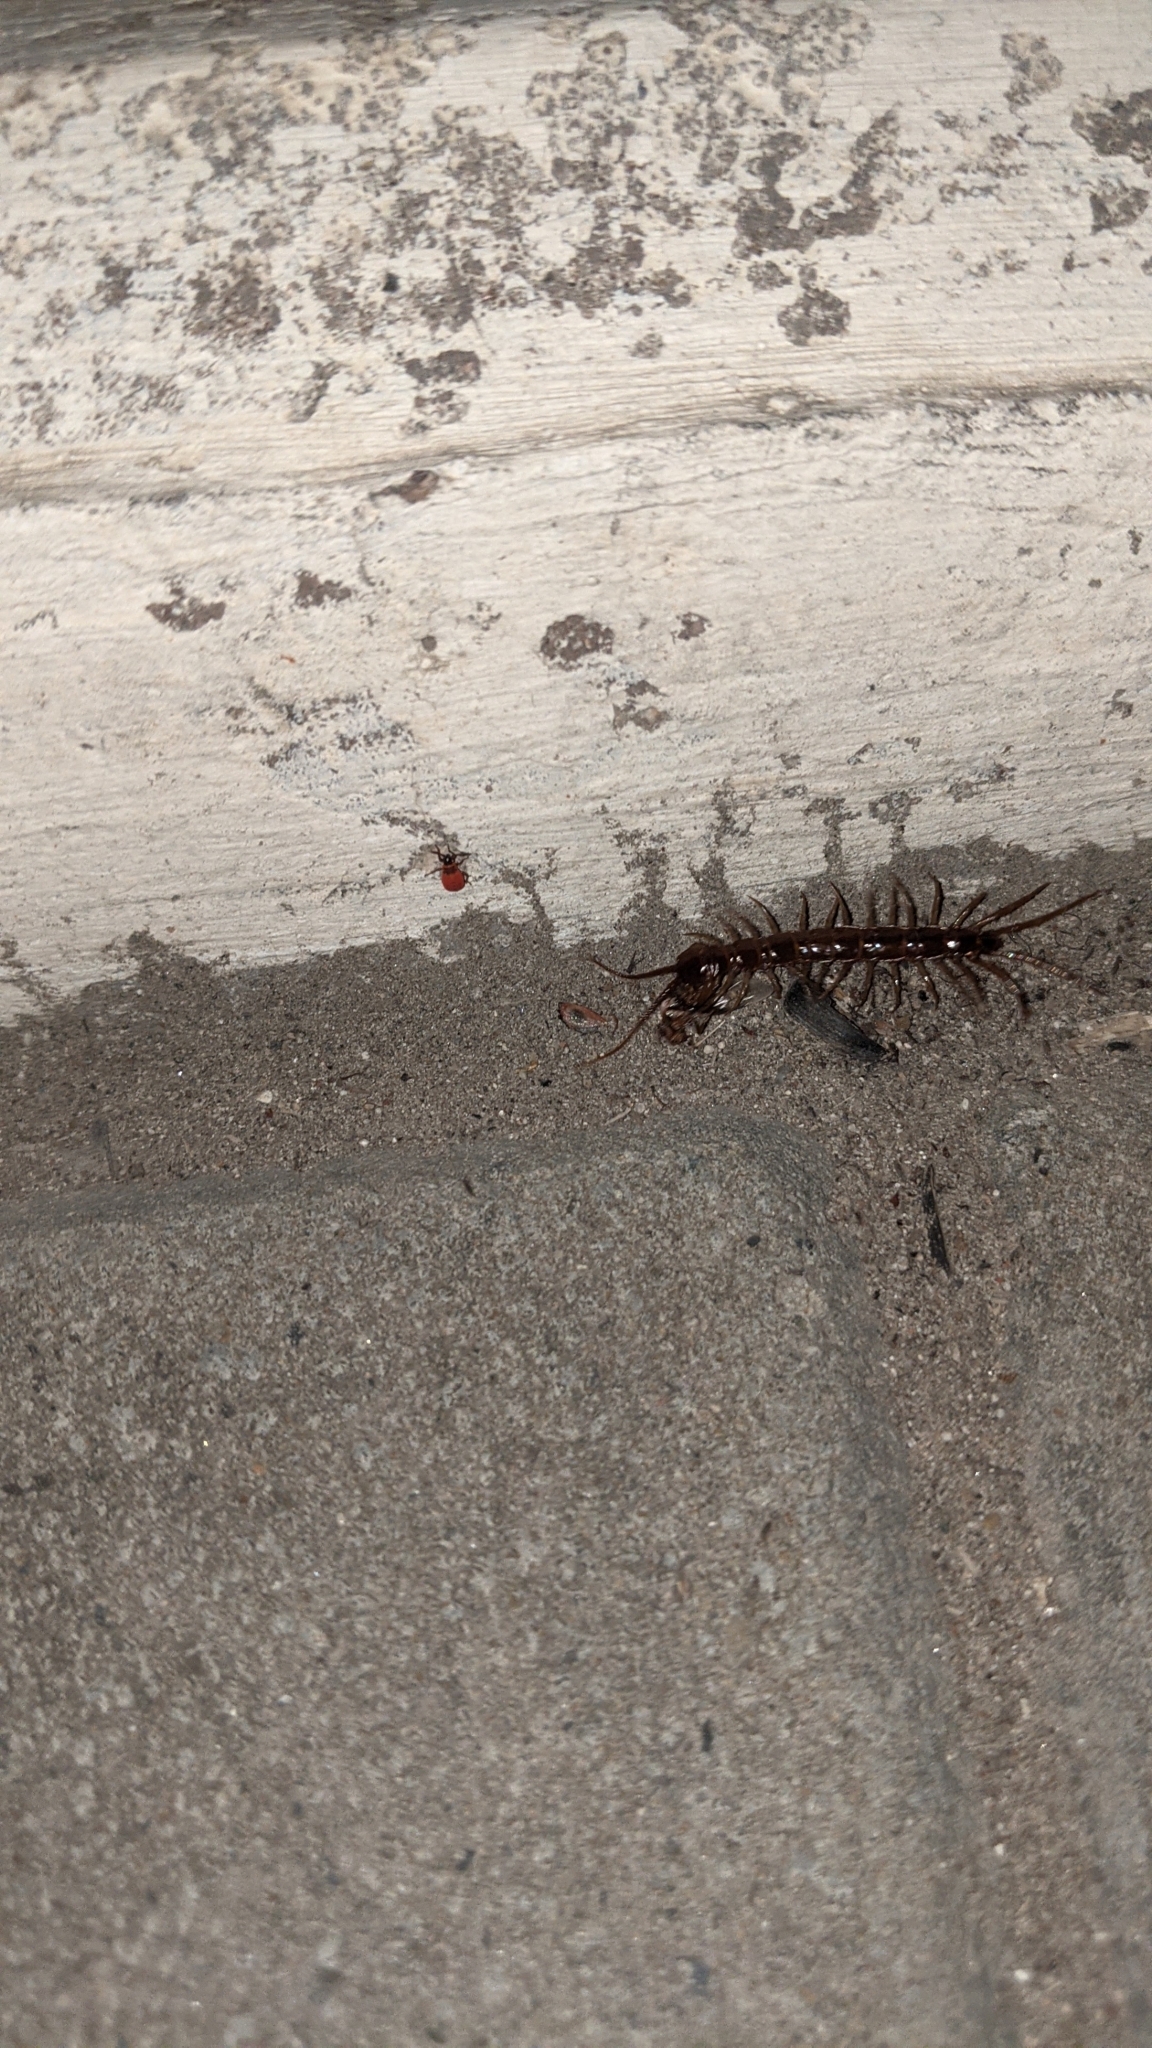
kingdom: Animalia
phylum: Arthropoda
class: Chilopoda
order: Lithobiomorpha
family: Lithobiidae
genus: Lithobius
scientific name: Lithobius forficatus
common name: Centipede
